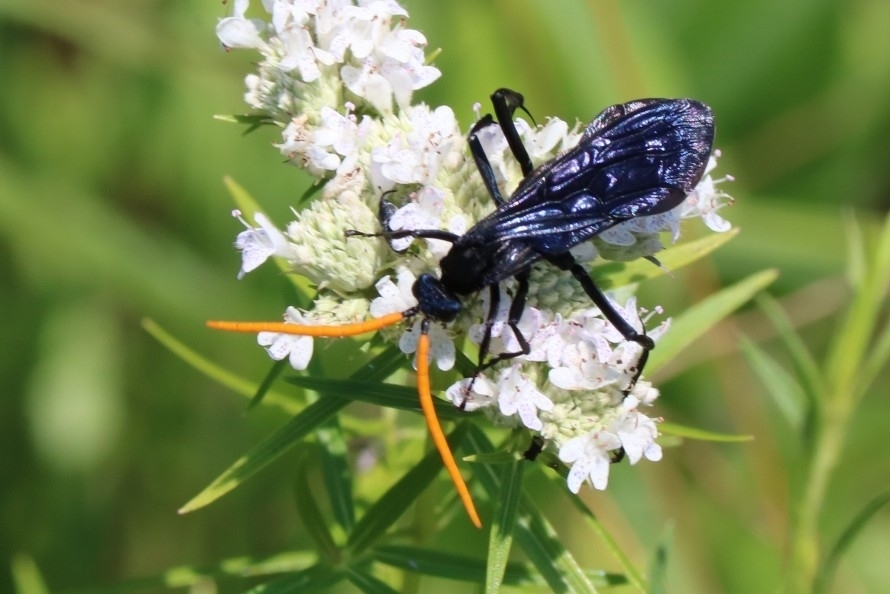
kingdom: Animalia
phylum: Arthropoda
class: Insecta
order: Hymenoptera
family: Pompilidae
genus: Pepsis
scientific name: Pepsis menechma
